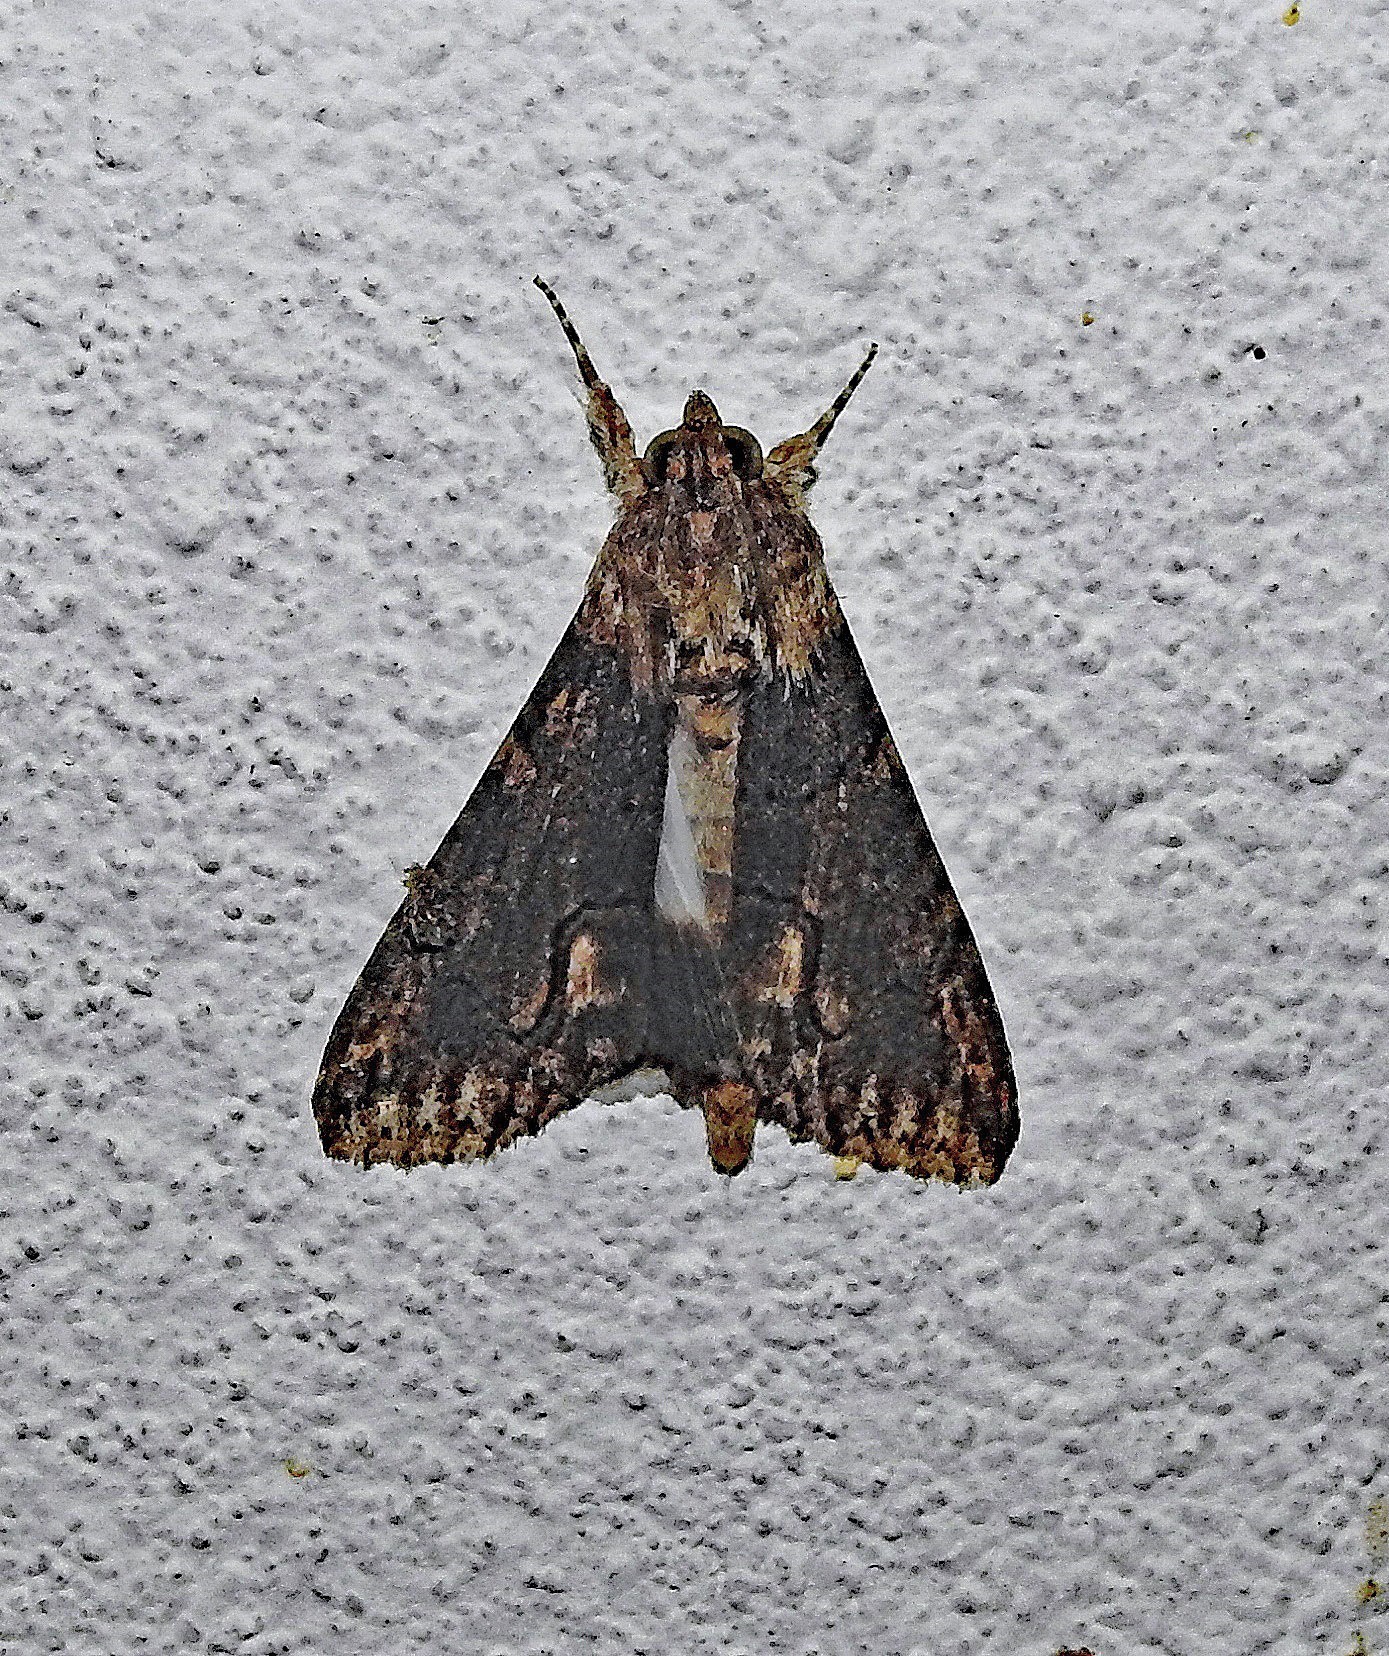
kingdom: Animalia
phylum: Arthropoda
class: Insecta
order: Lepidoptera
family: Erebidae
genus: Melipotis
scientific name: Melipotis acontioides
